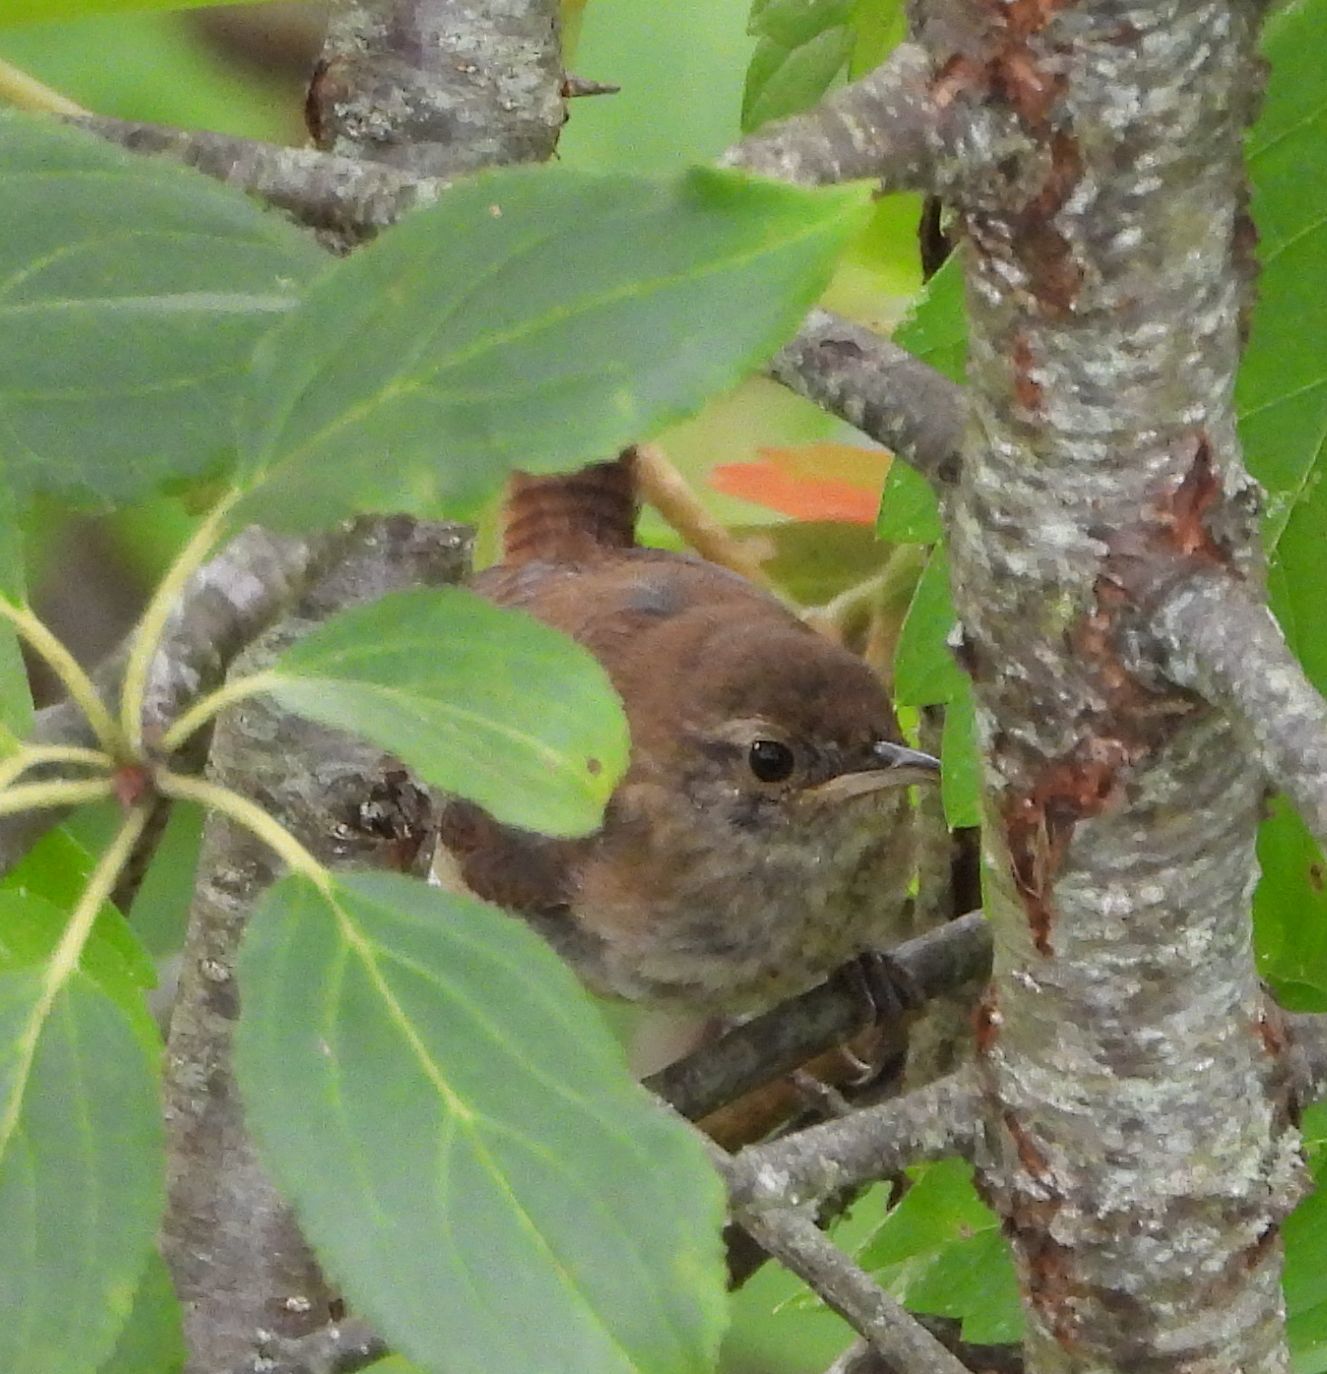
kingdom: Animalia
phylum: Chordata
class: Aves
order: Passeriformes
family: Troglodytidae
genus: Troglodytes
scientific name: Troglodytes aedon
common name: House wren
